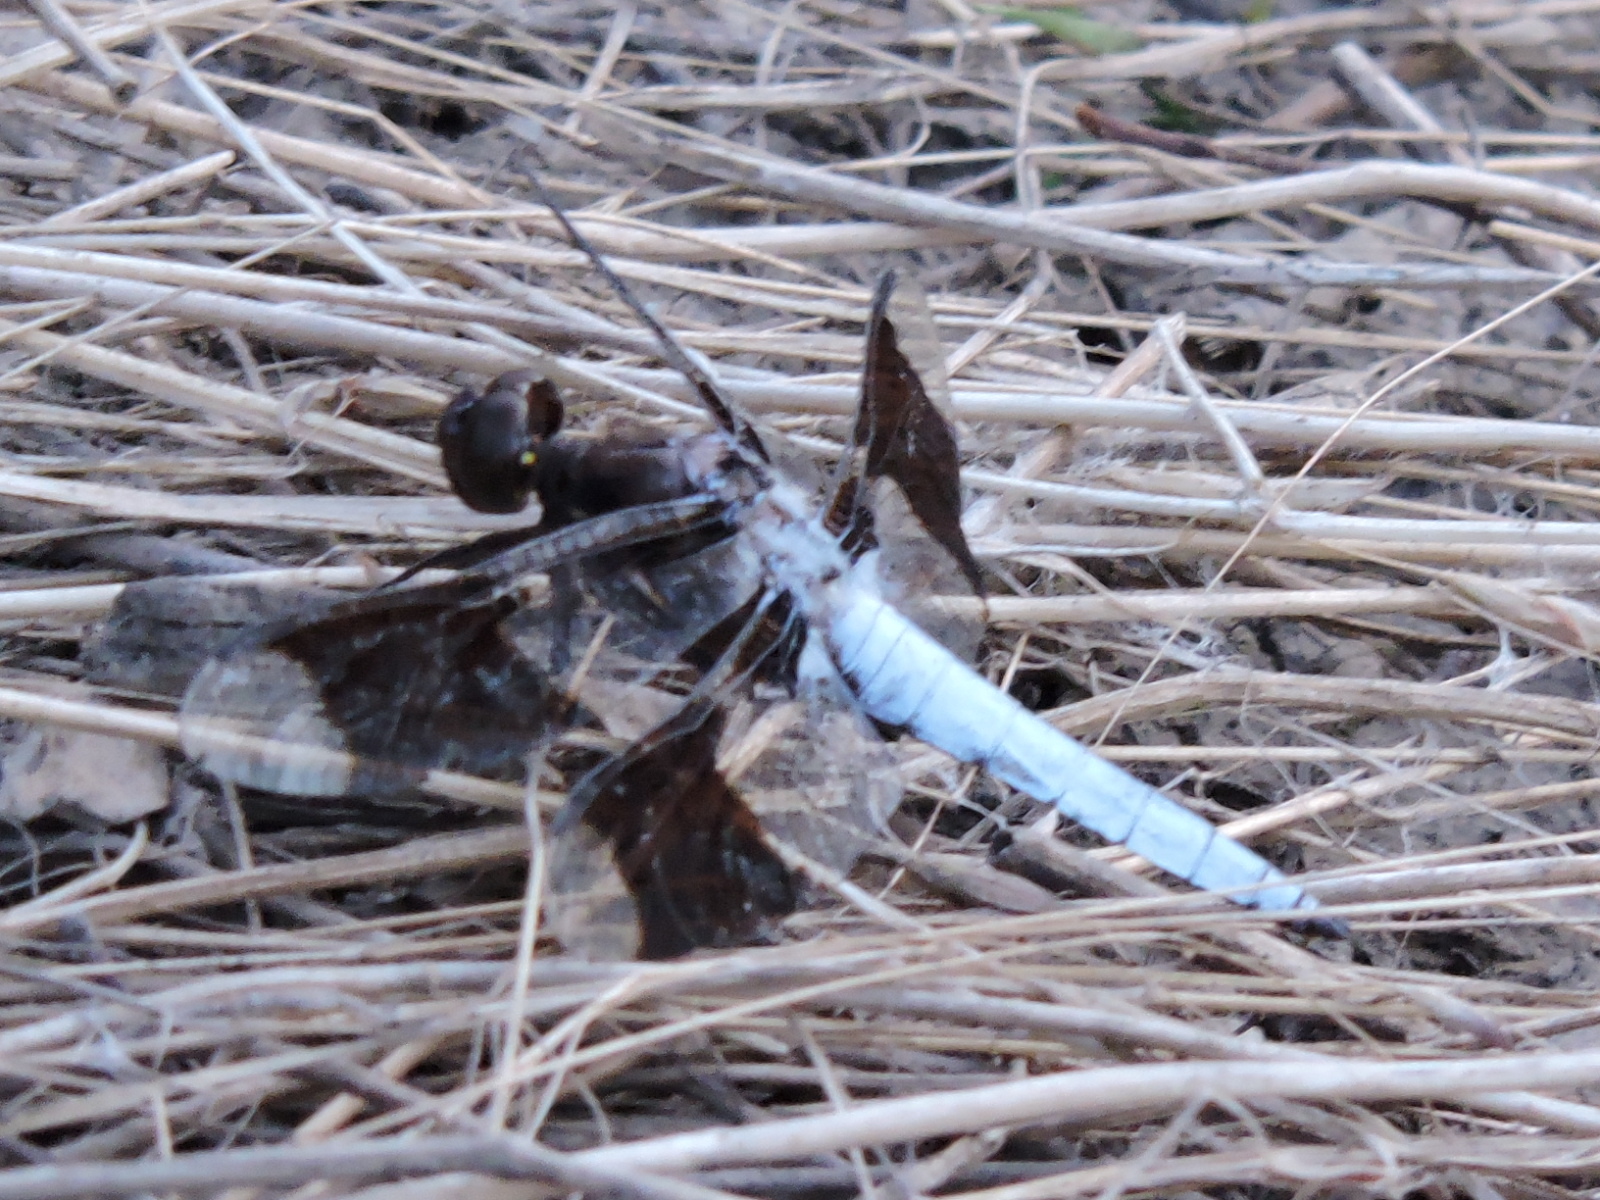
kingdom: Animalia
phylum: Arthropoda
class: Insecta
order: Odonata
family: Libellulidae
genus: Plathemis
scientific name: Plathemis lydia
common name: Common whitetail
